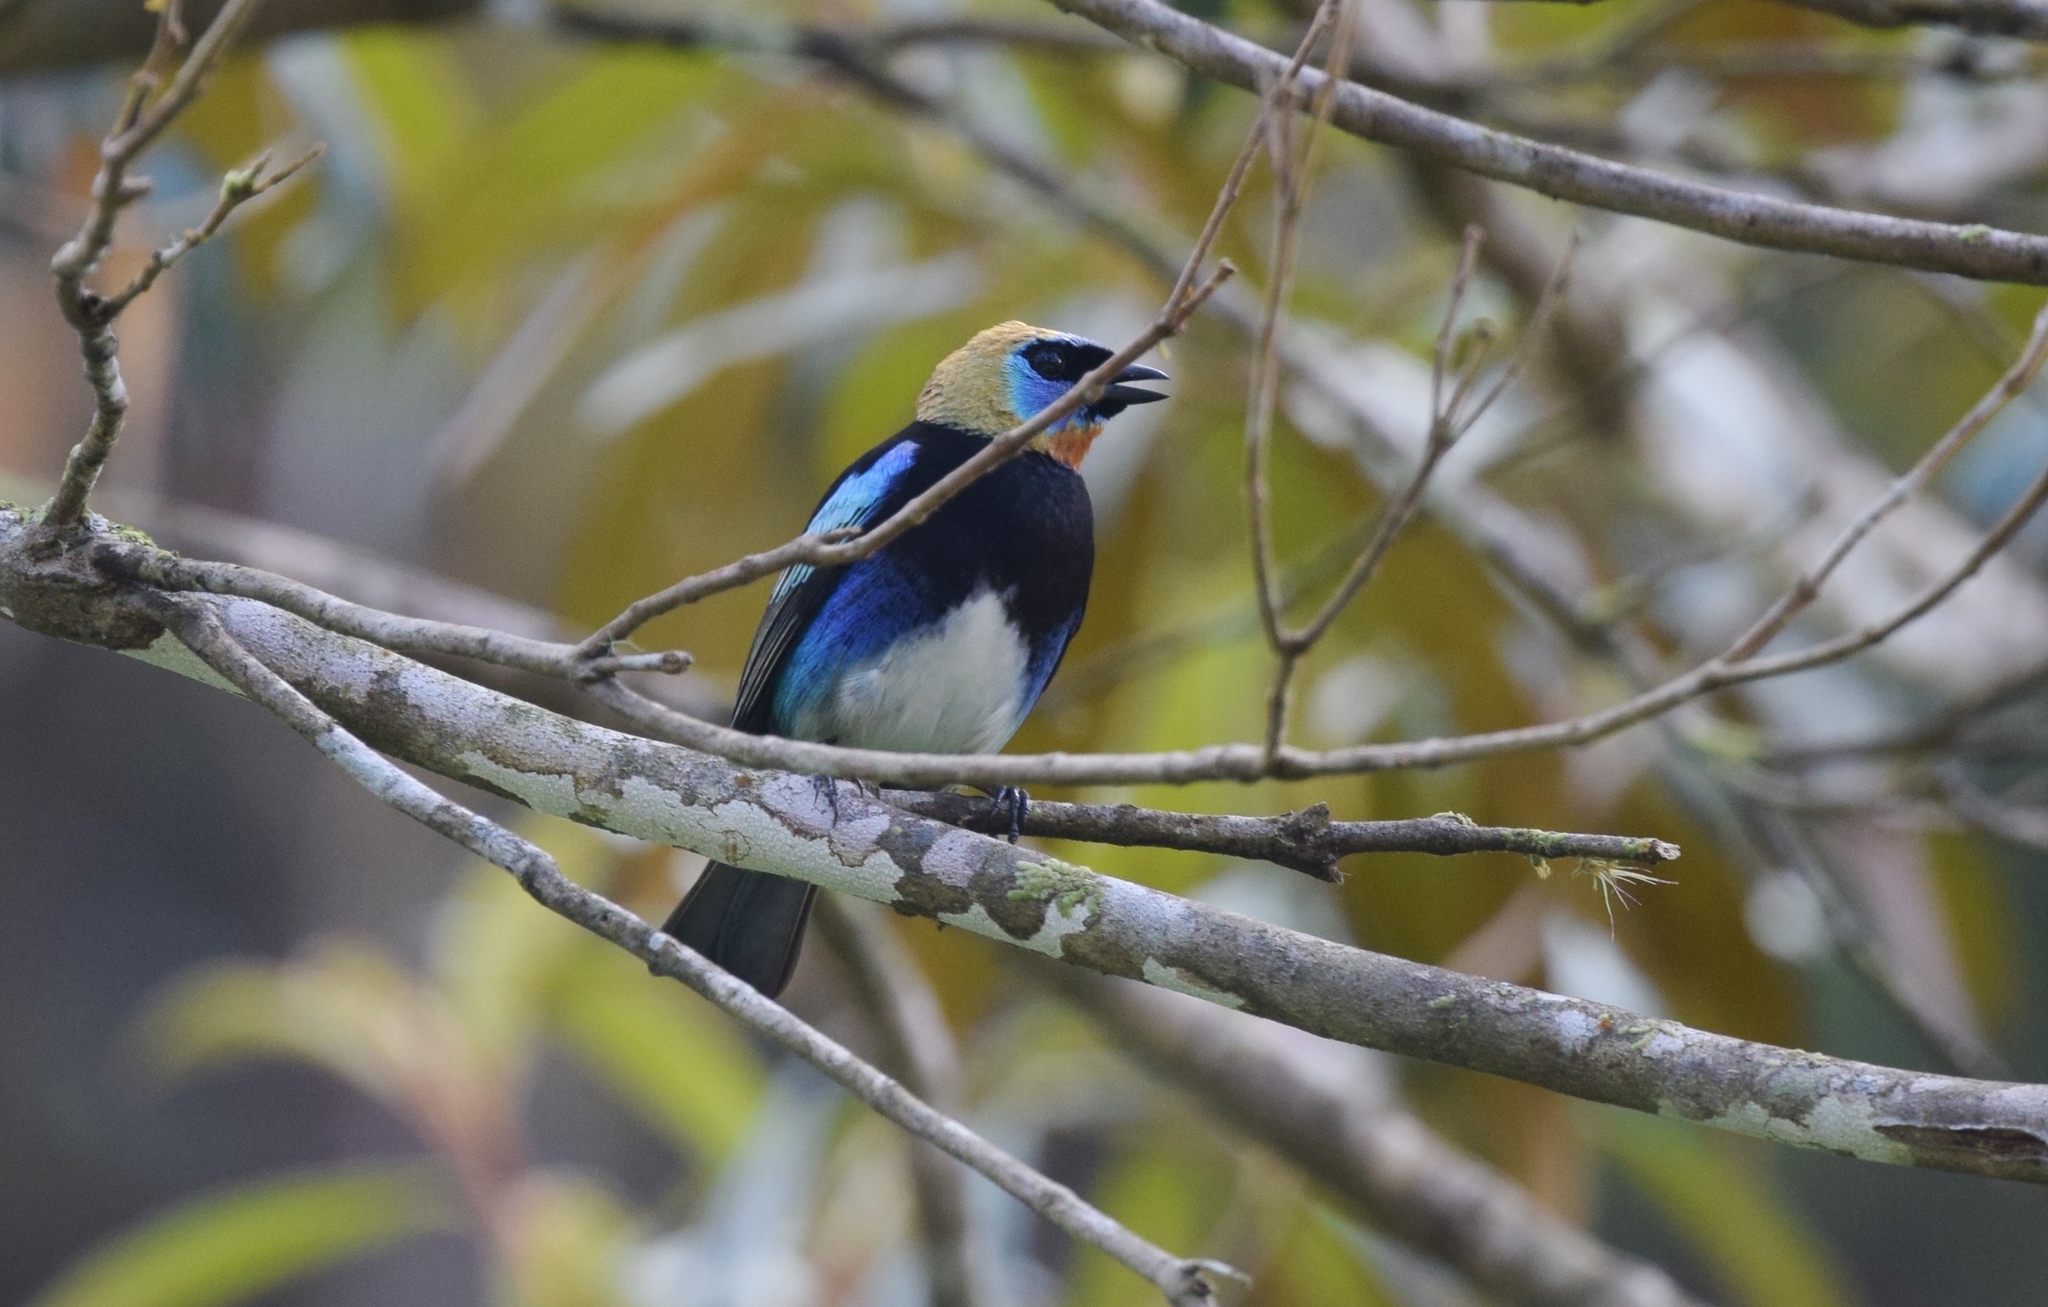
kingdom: Animalia
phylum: Chordata
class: Aves
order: Passeriformes
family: Thraupidae
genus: Stilpnia
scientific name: Stilpnia larvata
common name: Golden-hooded tanager
